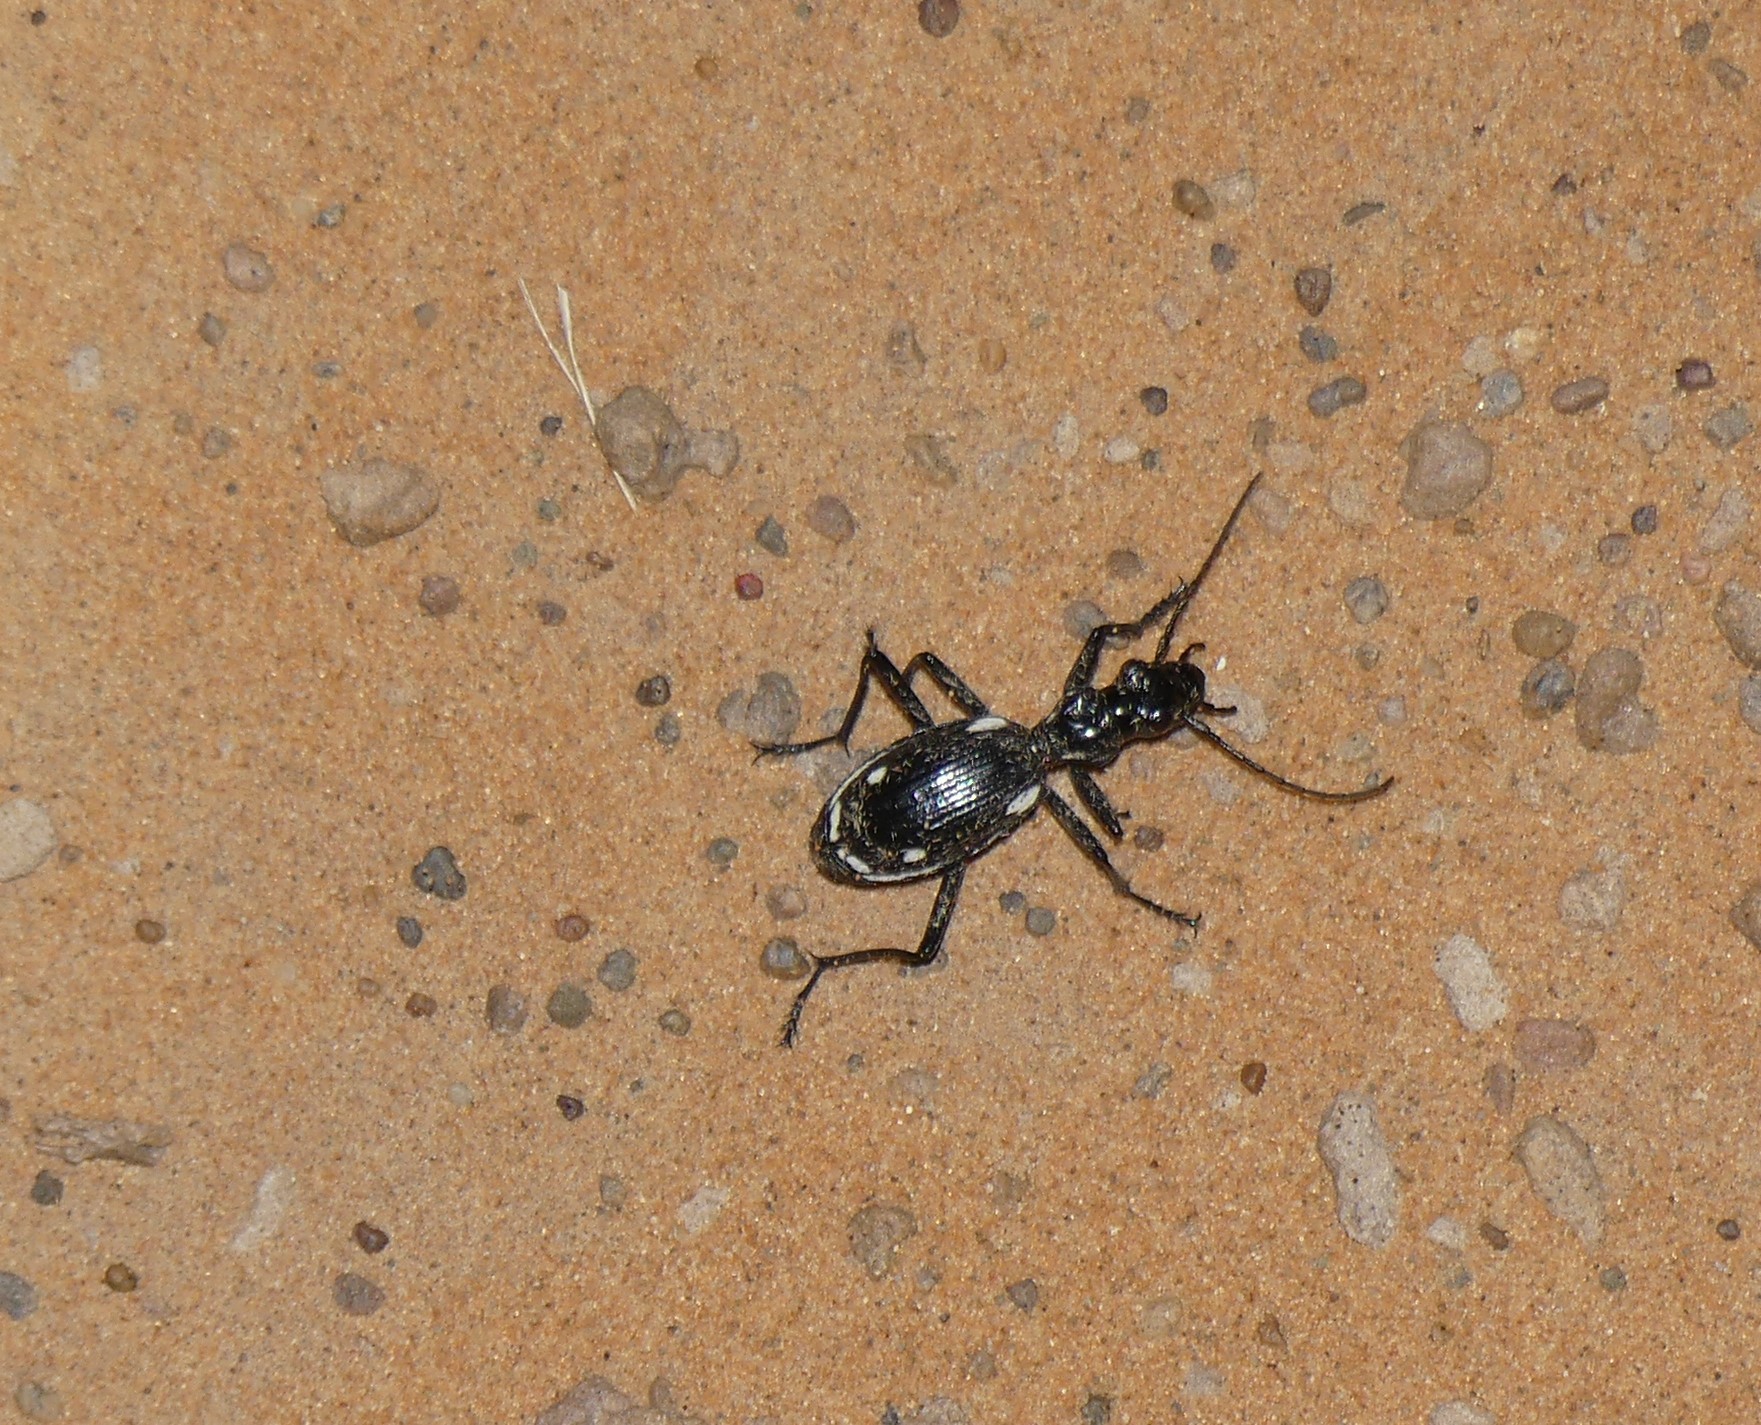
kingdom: Animalia
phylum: Arthropoda
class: Insecta
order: Coleoptera
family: Carabidae
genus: Anthia
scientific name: Anthia sexmaculata
